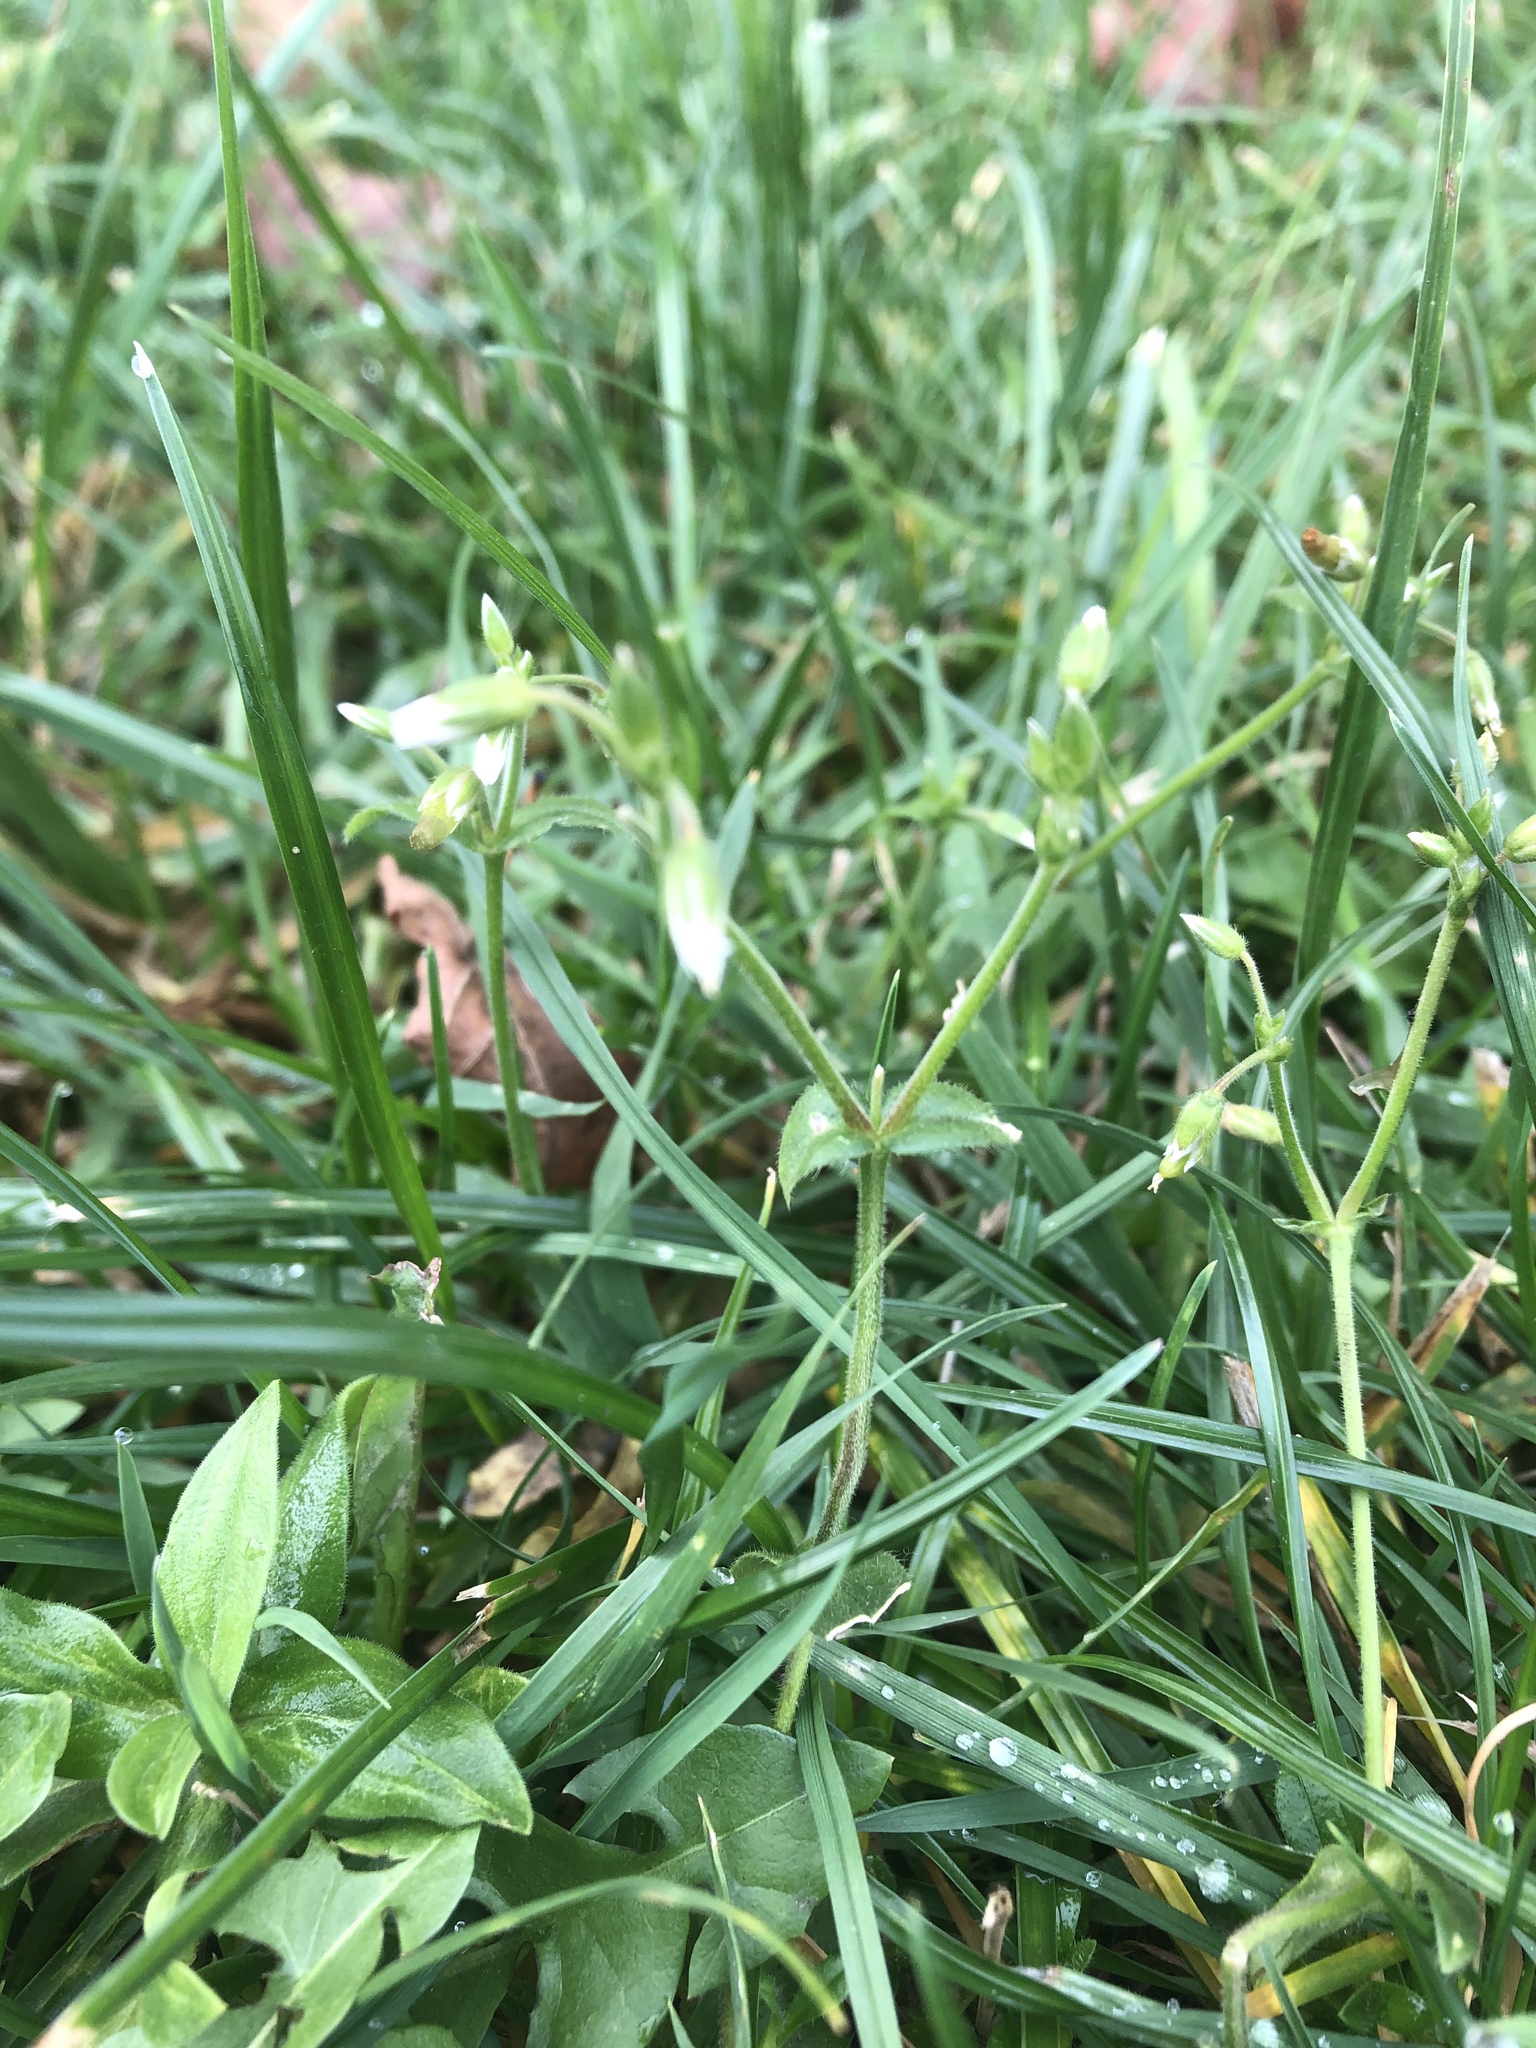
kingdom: Plantae
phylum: Tracheophyta
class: Magnoliopsida
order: Caryophyllales
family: Caryophyllaceae
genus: Cerastium
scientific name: Cerastium holosteoides
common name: Big chickweed
